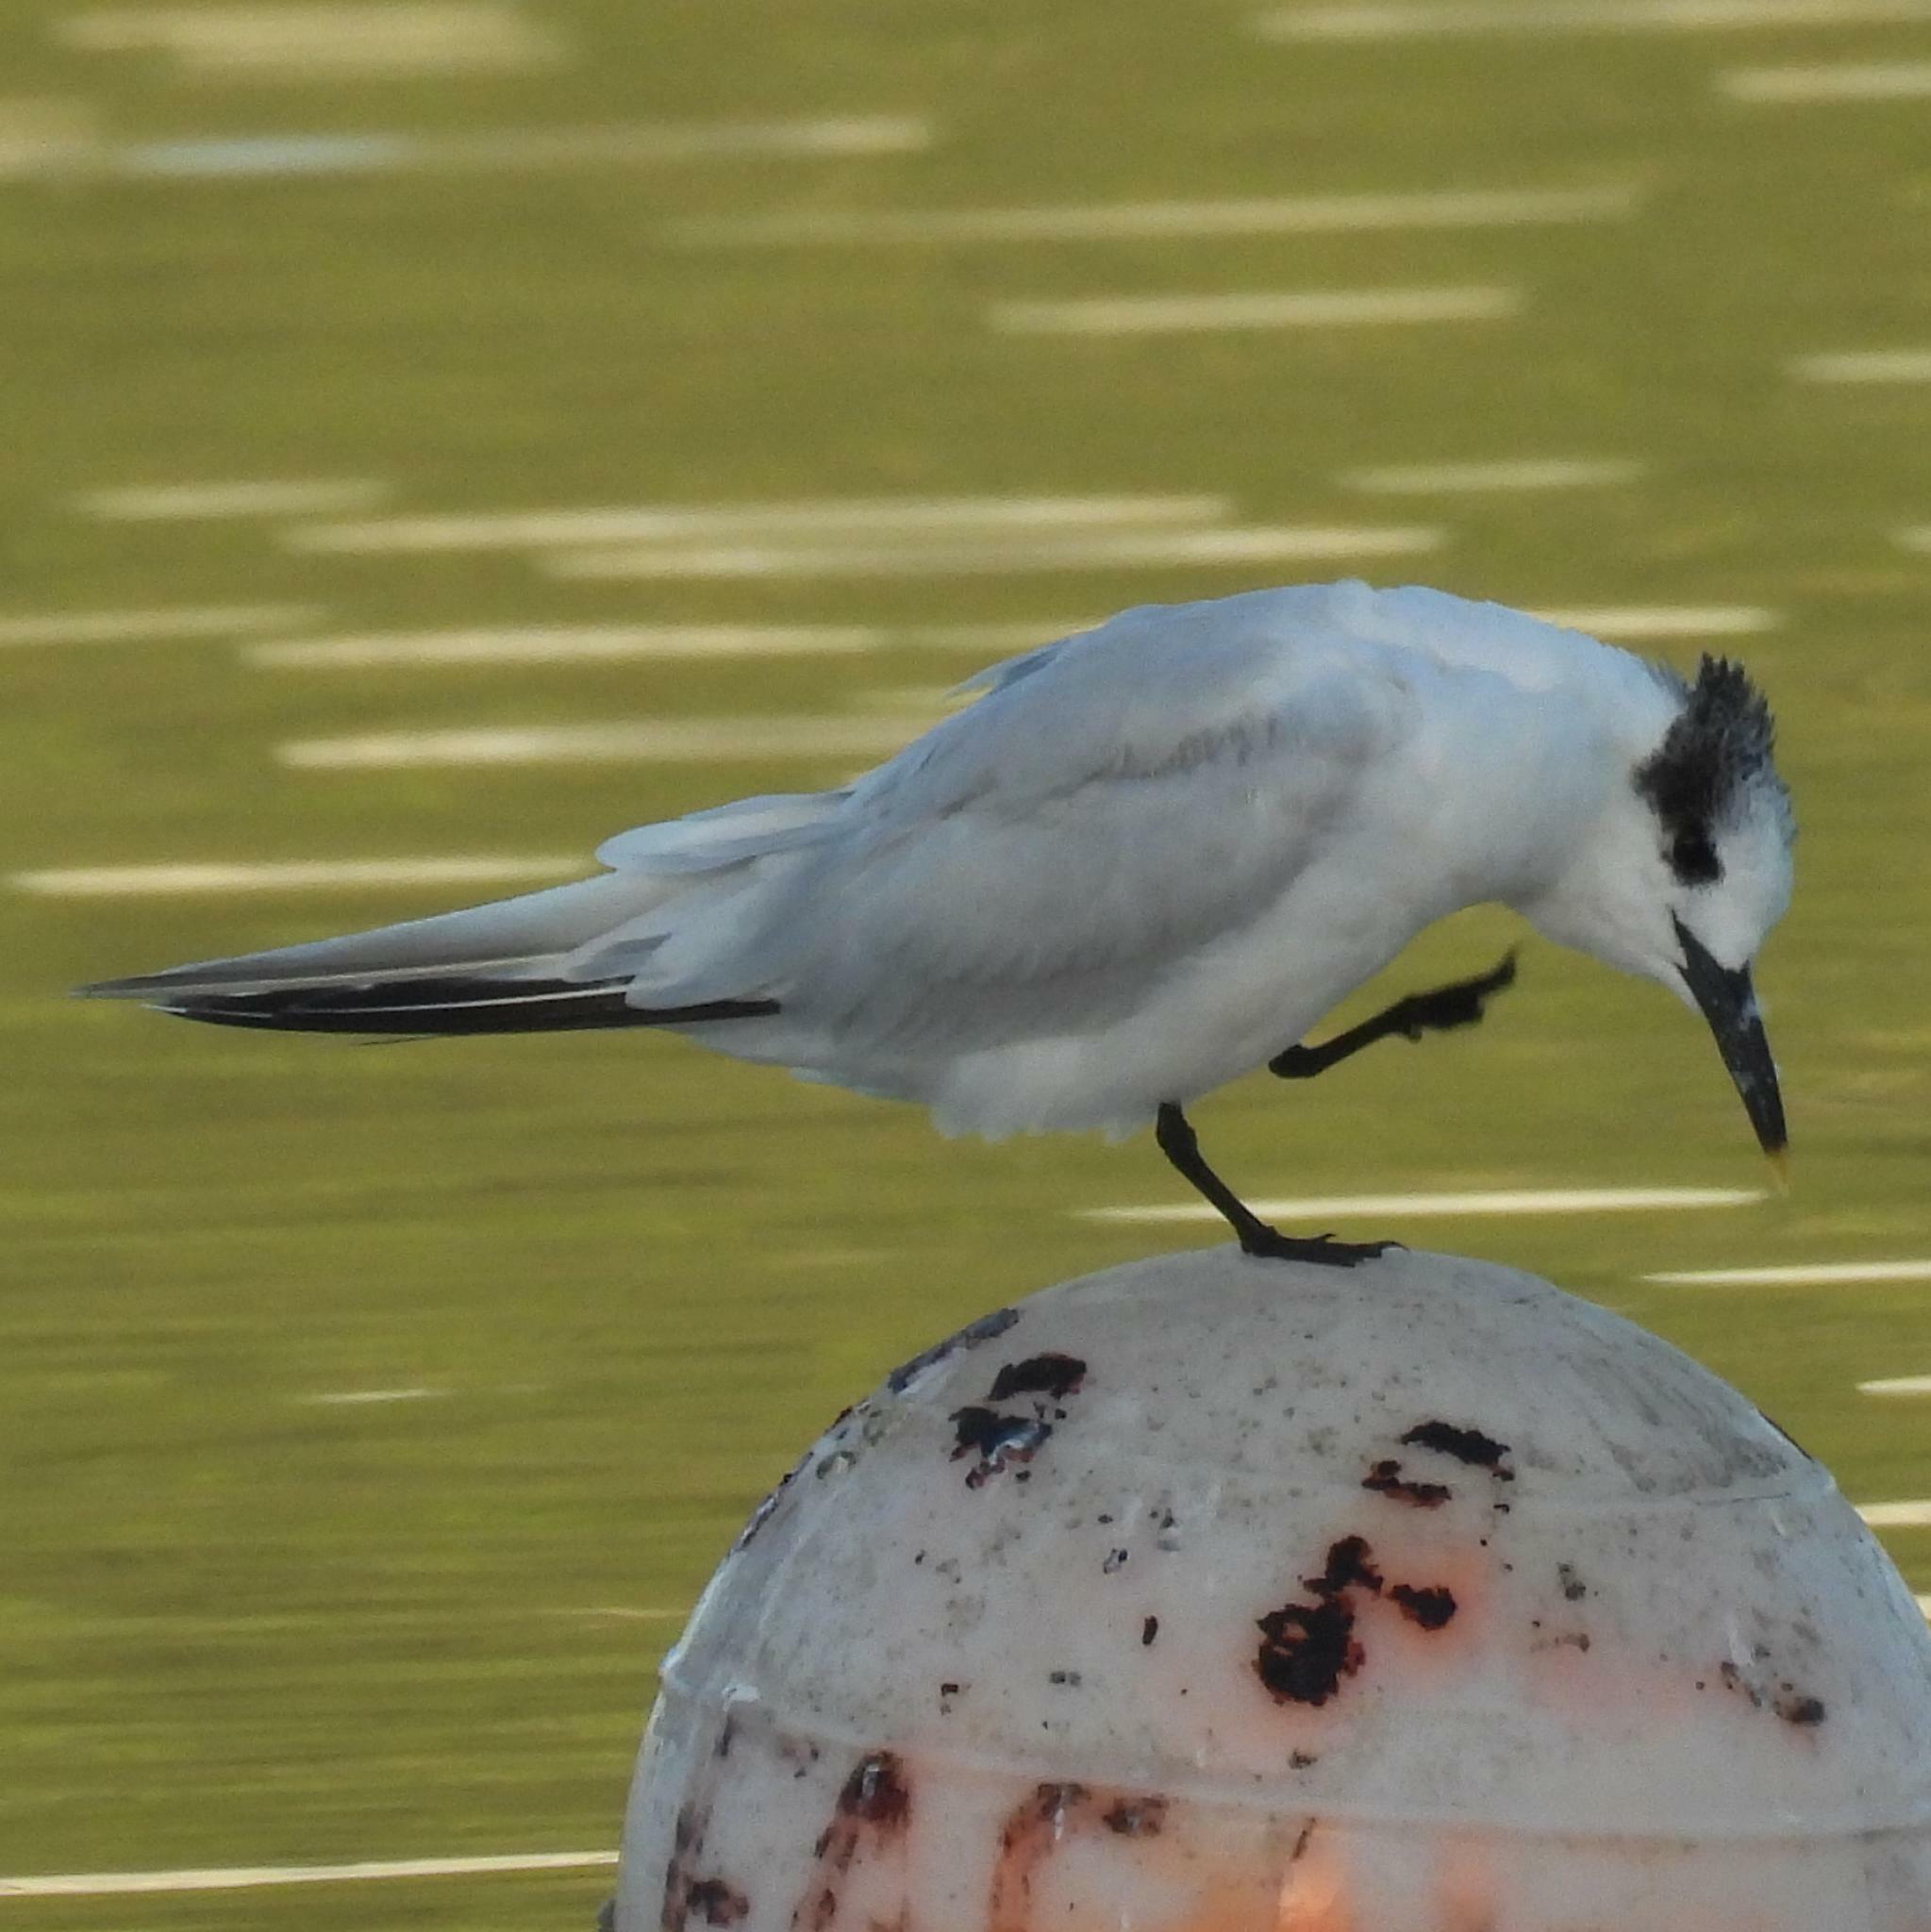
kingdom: Animalia
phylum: Chordata
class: Aves
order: Charadriiformes
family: Laridae
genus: Thalasseus
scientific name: Thalasseus sandvicensis
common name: Sandwich tern
